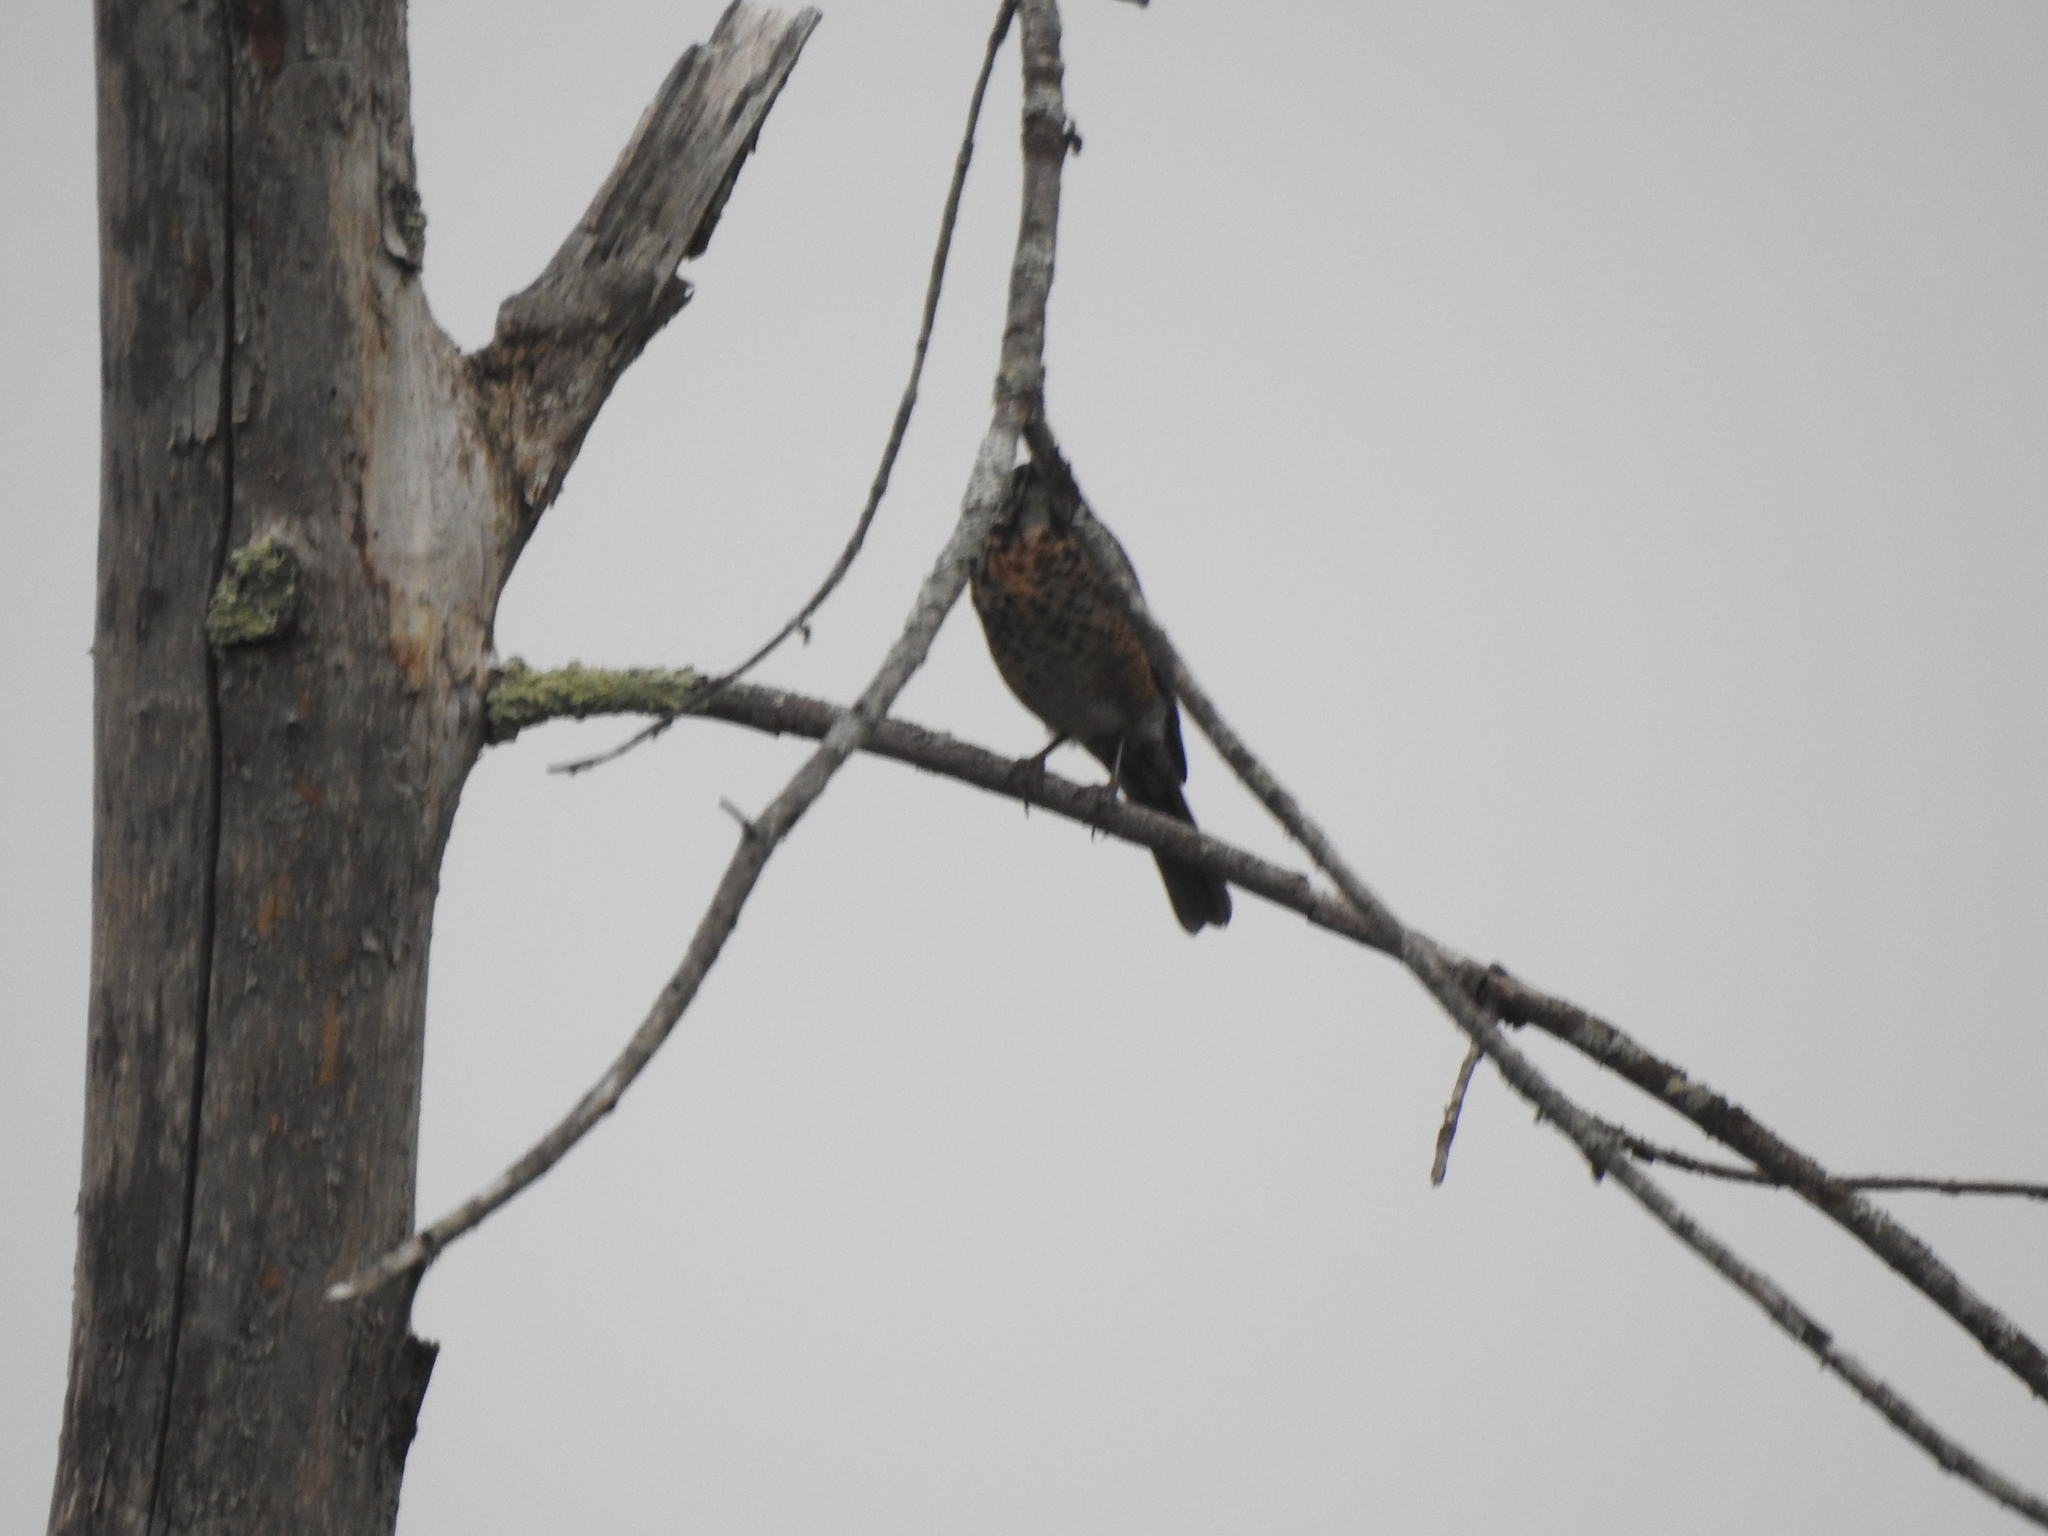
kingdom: Animalia
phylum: Chordata
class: Aves
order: Passeriformes
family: Turdidae
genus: Turdus
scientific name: Turdus migratorius
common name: American robin
